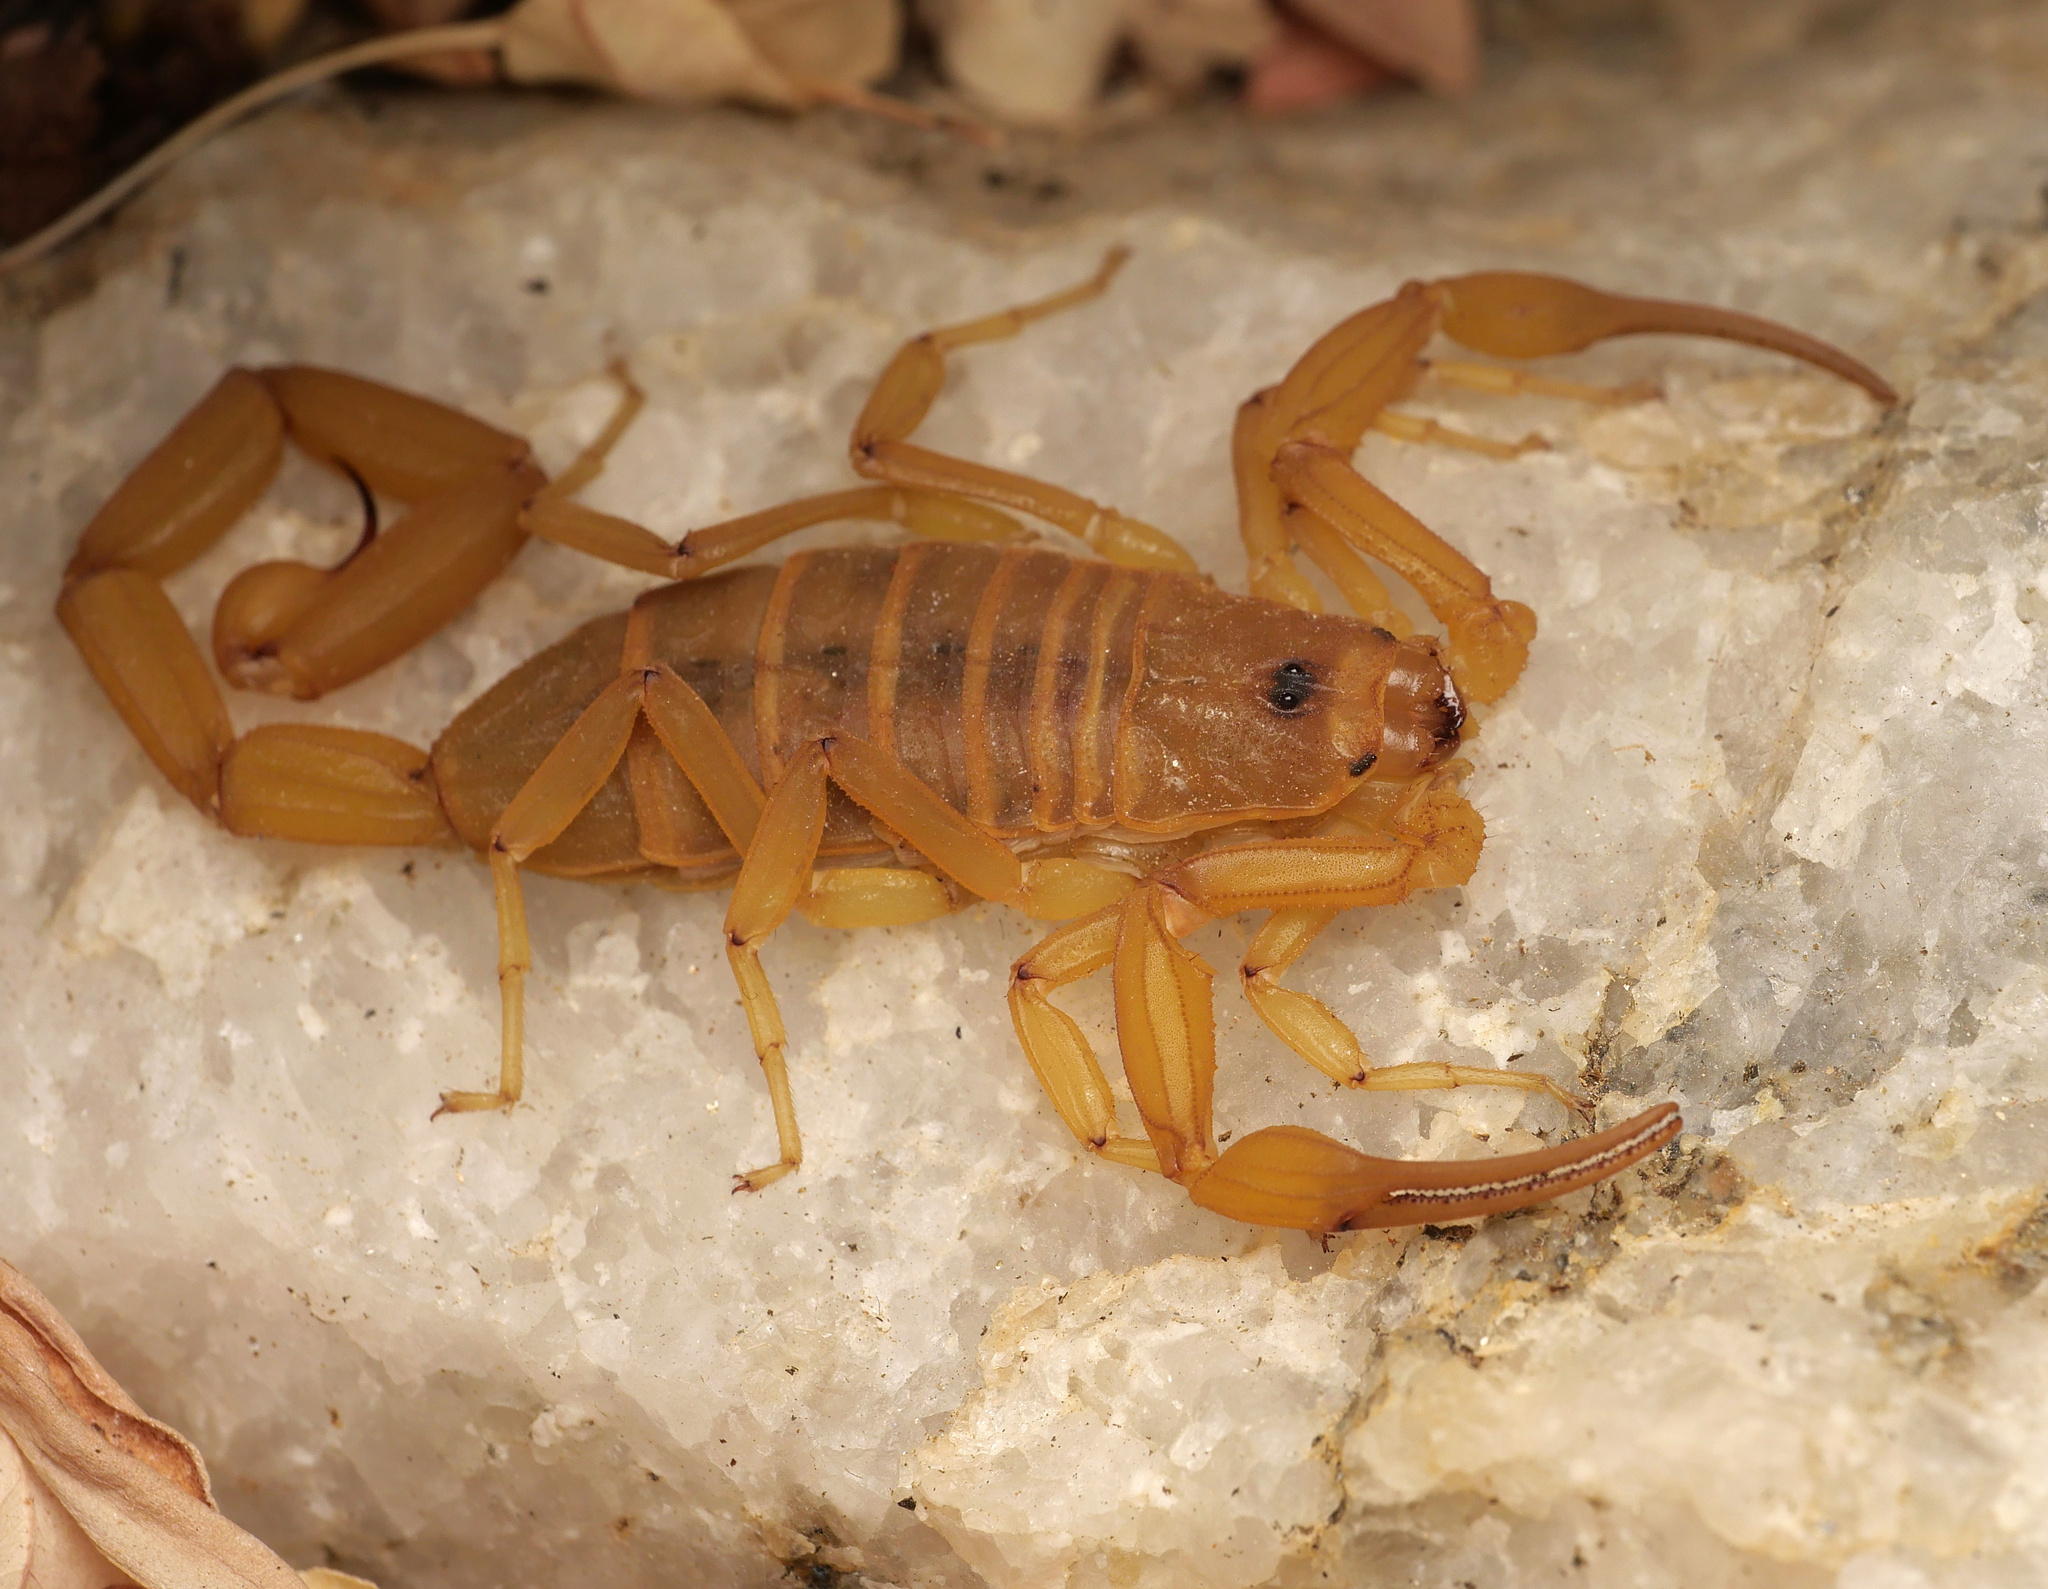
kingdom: Animalia
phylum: Arthropoda
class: Arachnida
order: Scorpiones
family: Buthidae
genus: Centruroides
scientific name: Centruroides exilicauda
